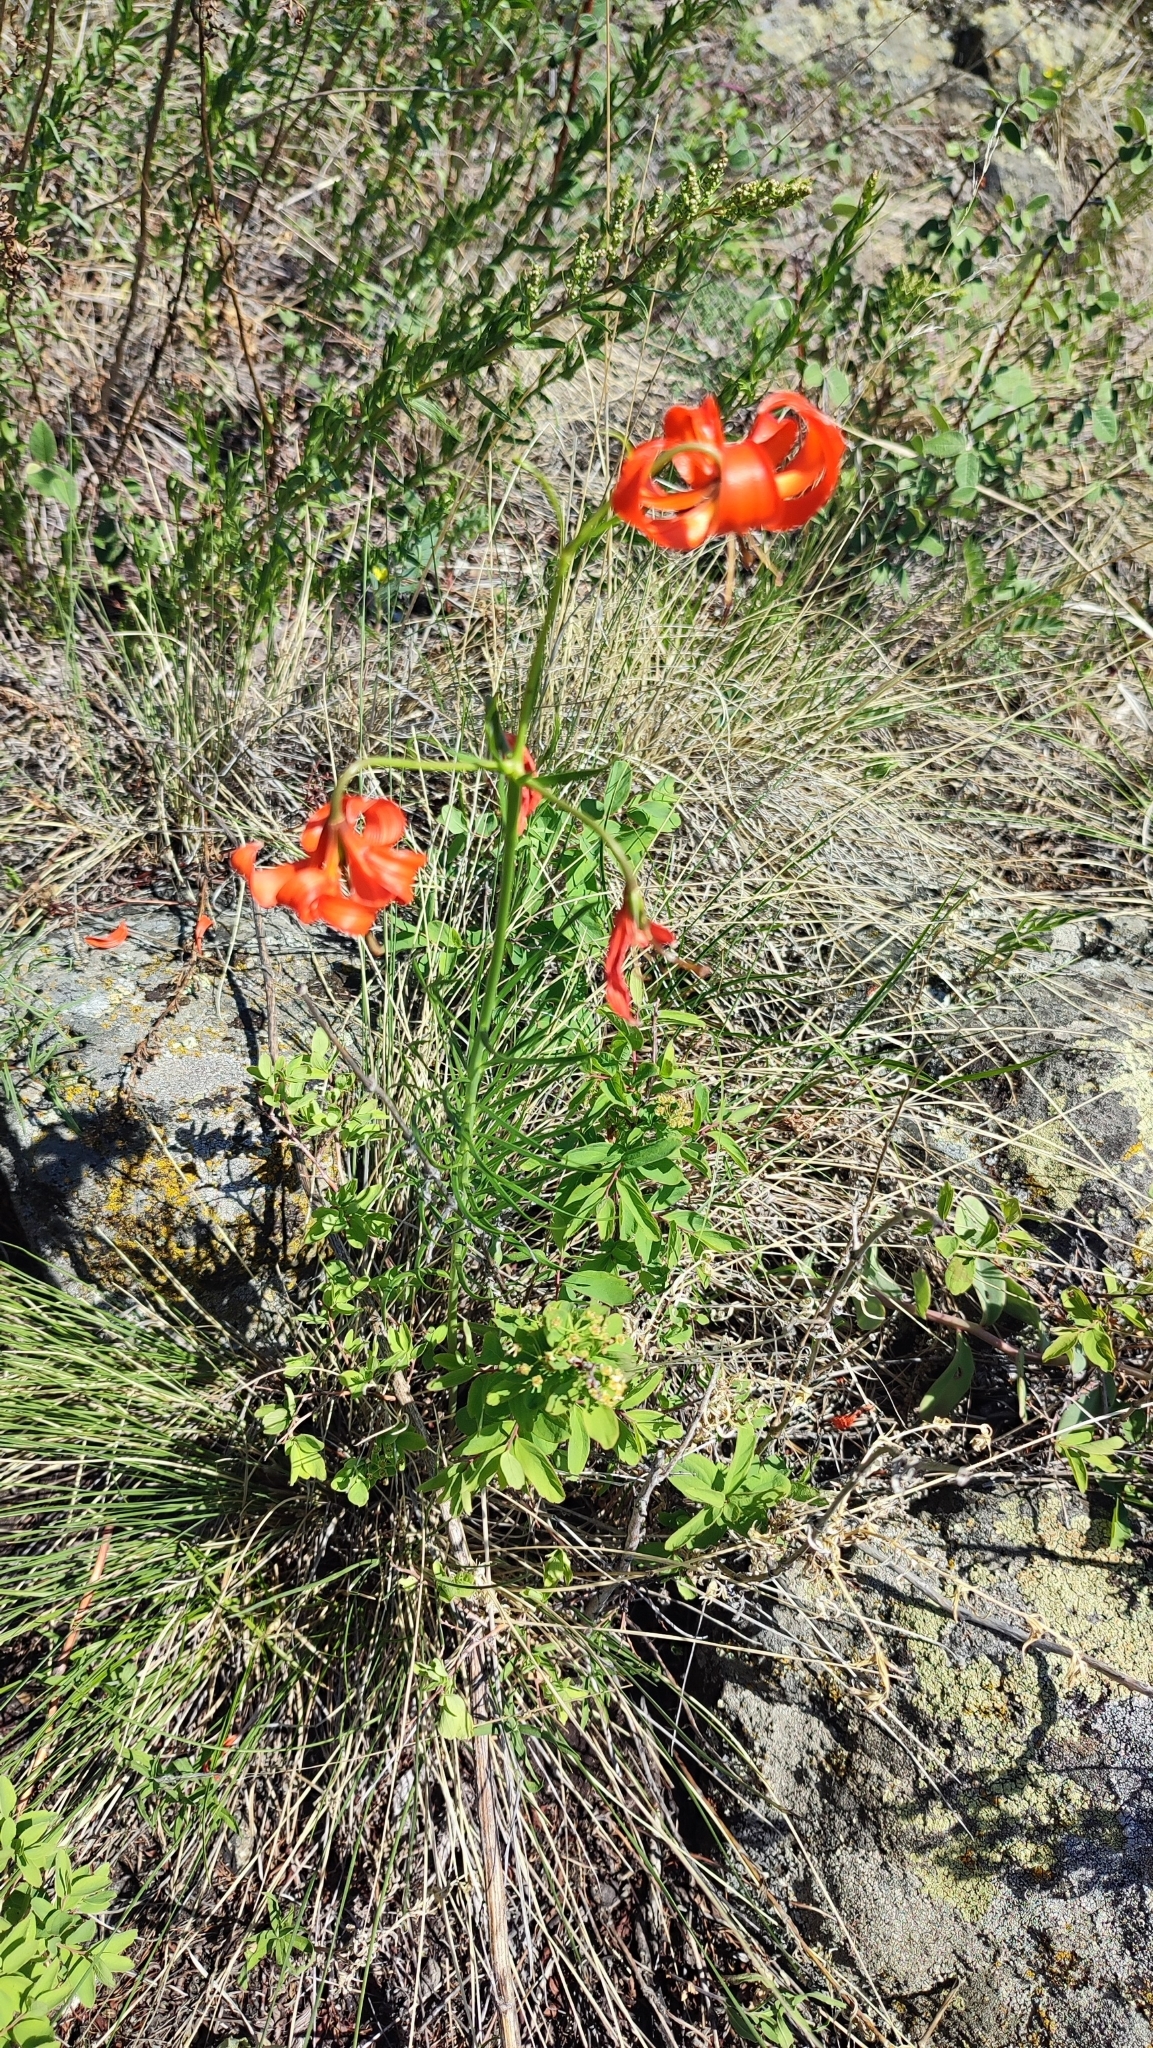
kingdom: Plantae
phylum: Tracheophyta
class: Liliopsida
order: Liliales
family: Liliaceae
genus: Lilium
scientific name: Lilium pumilum
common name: Coral lily
